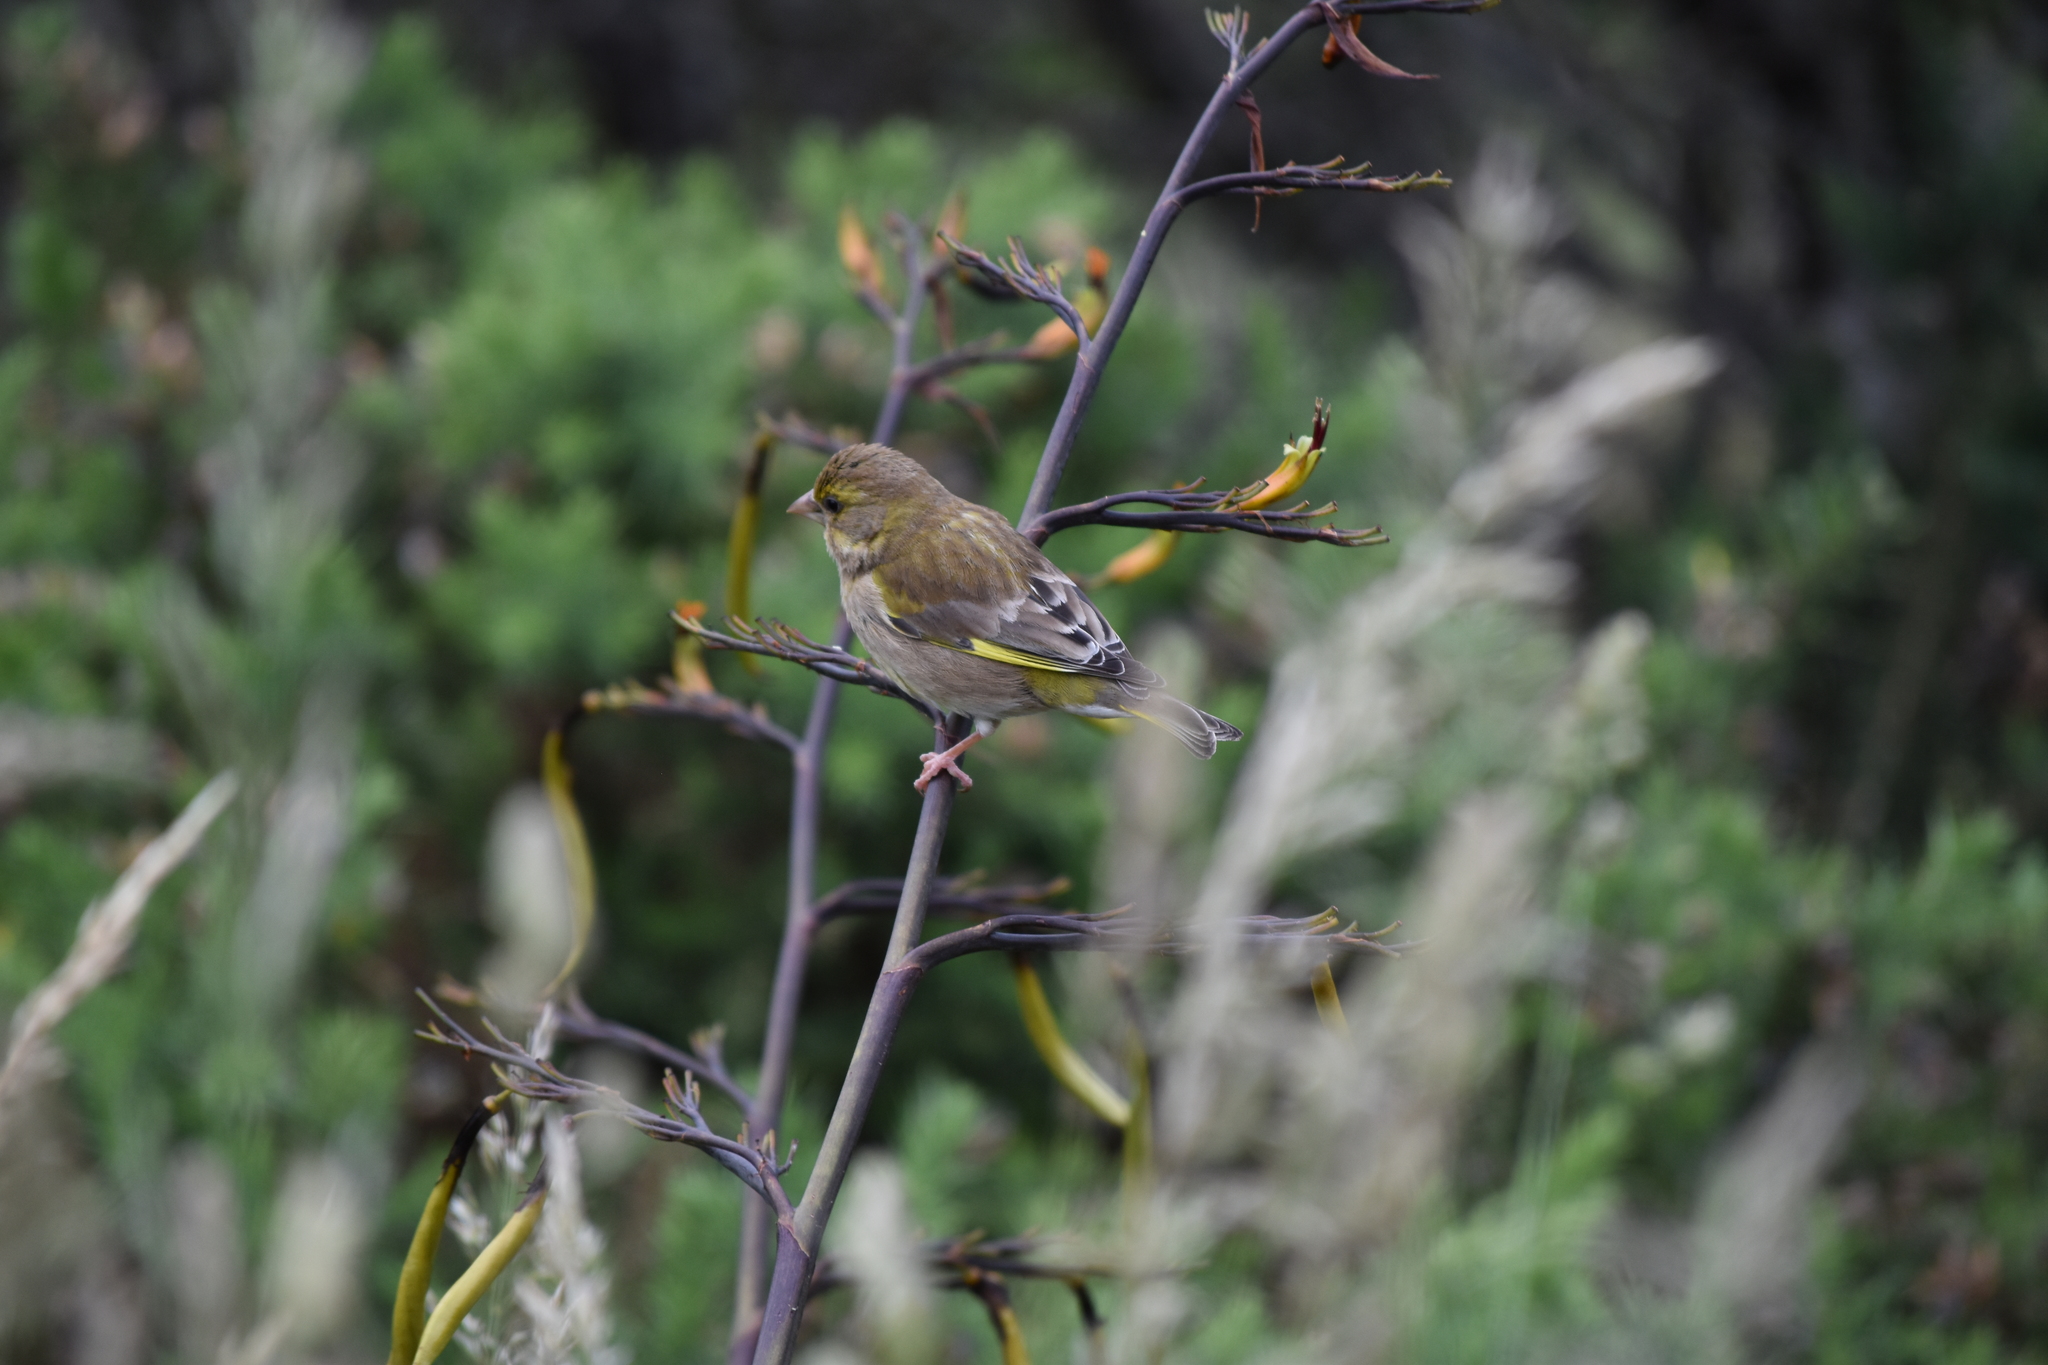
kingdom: Plantae
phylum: Tracheophyta
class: Liliopsida
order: Poales
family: Poaceae
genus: Chloris
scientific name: Chloris chloris
